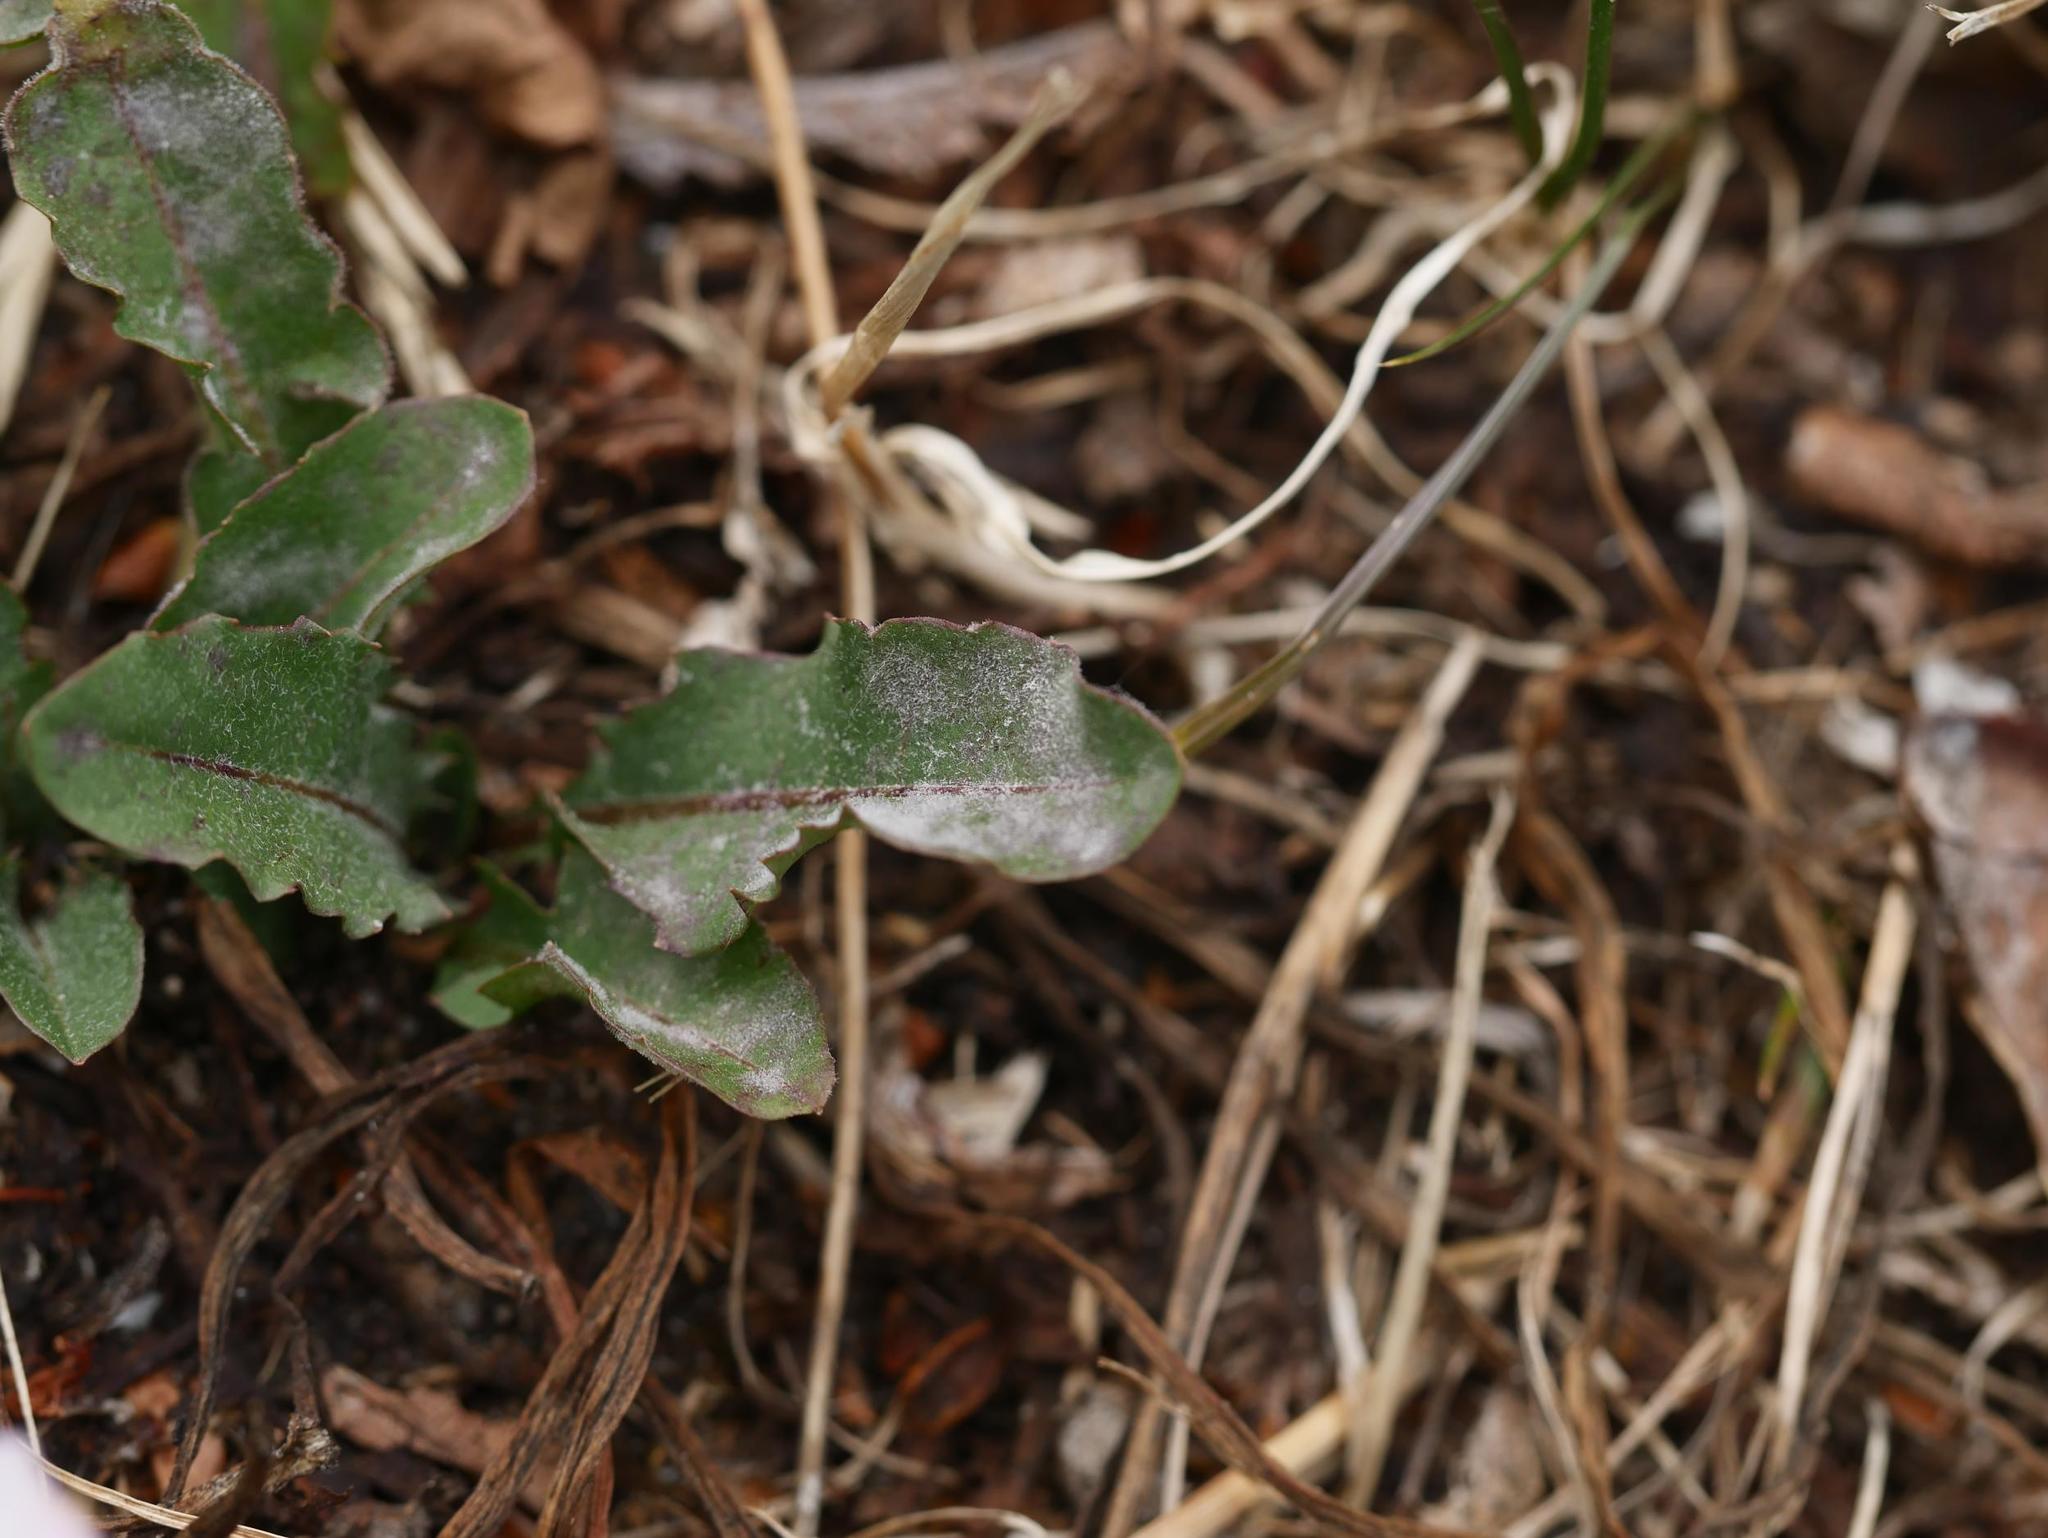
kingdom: Fungi
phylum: Ascomycota
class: Leotiomycetes
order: Helotiales
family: Erysiphaceae
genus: Erysiphe
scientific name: Erysiphe convolvuli
